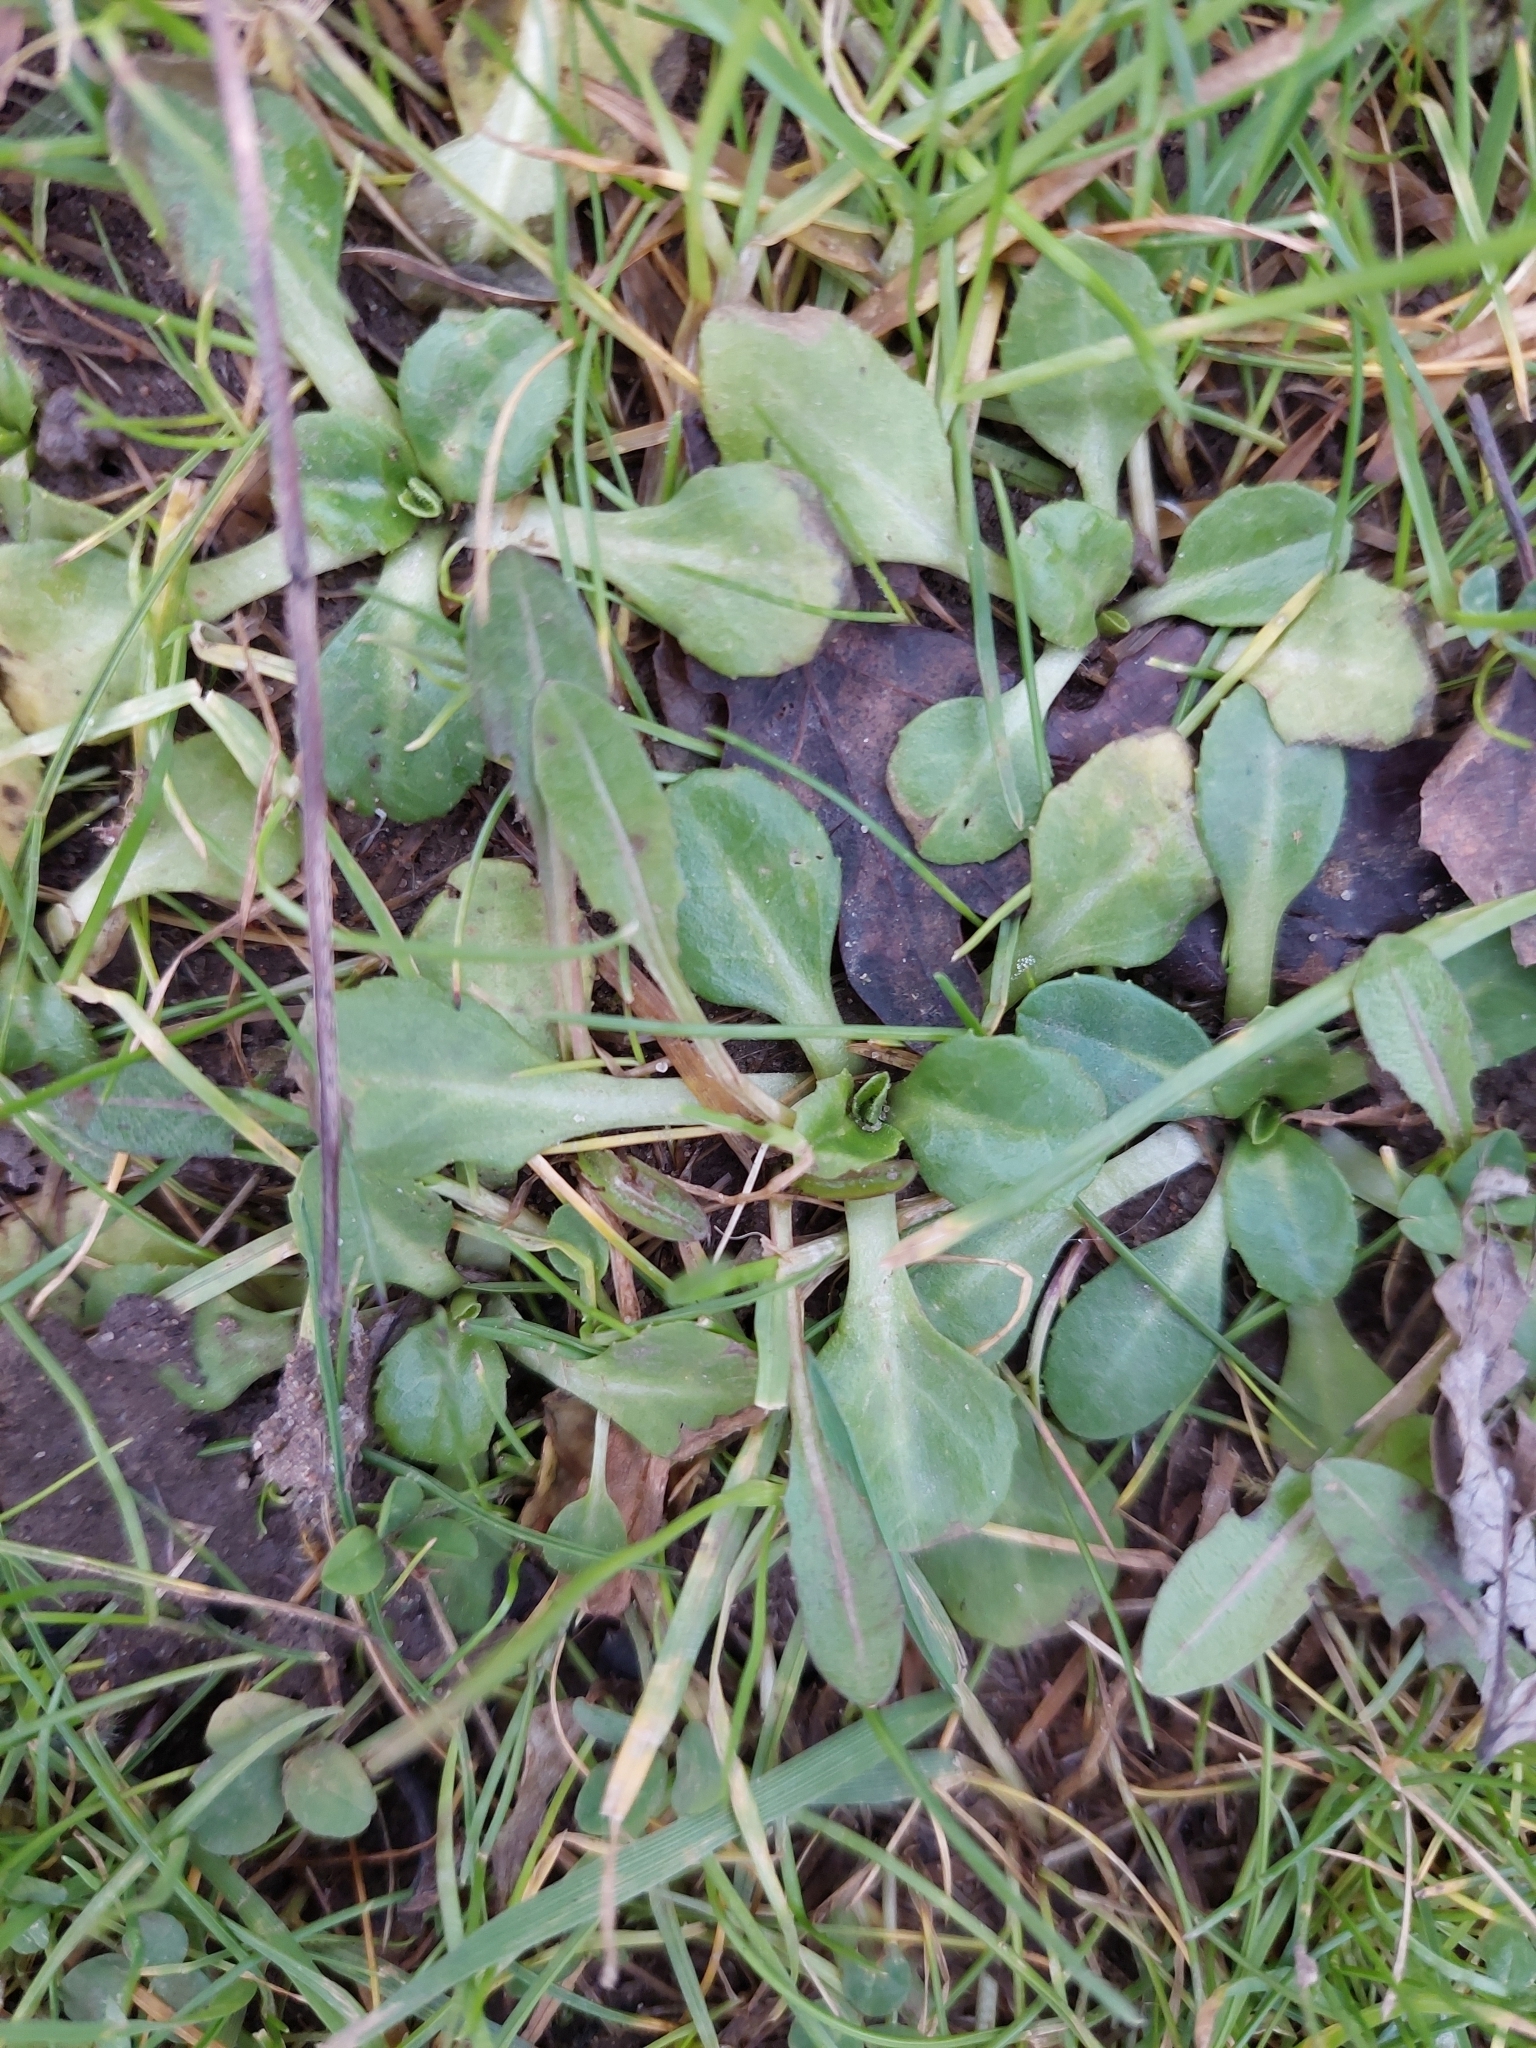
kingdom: Plantae
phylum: Tracheophyta
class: Magnoliopsida
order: Asterales
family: Asteraceae
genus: Bellis
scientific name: Bellis perennis
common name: Lawndaisy
